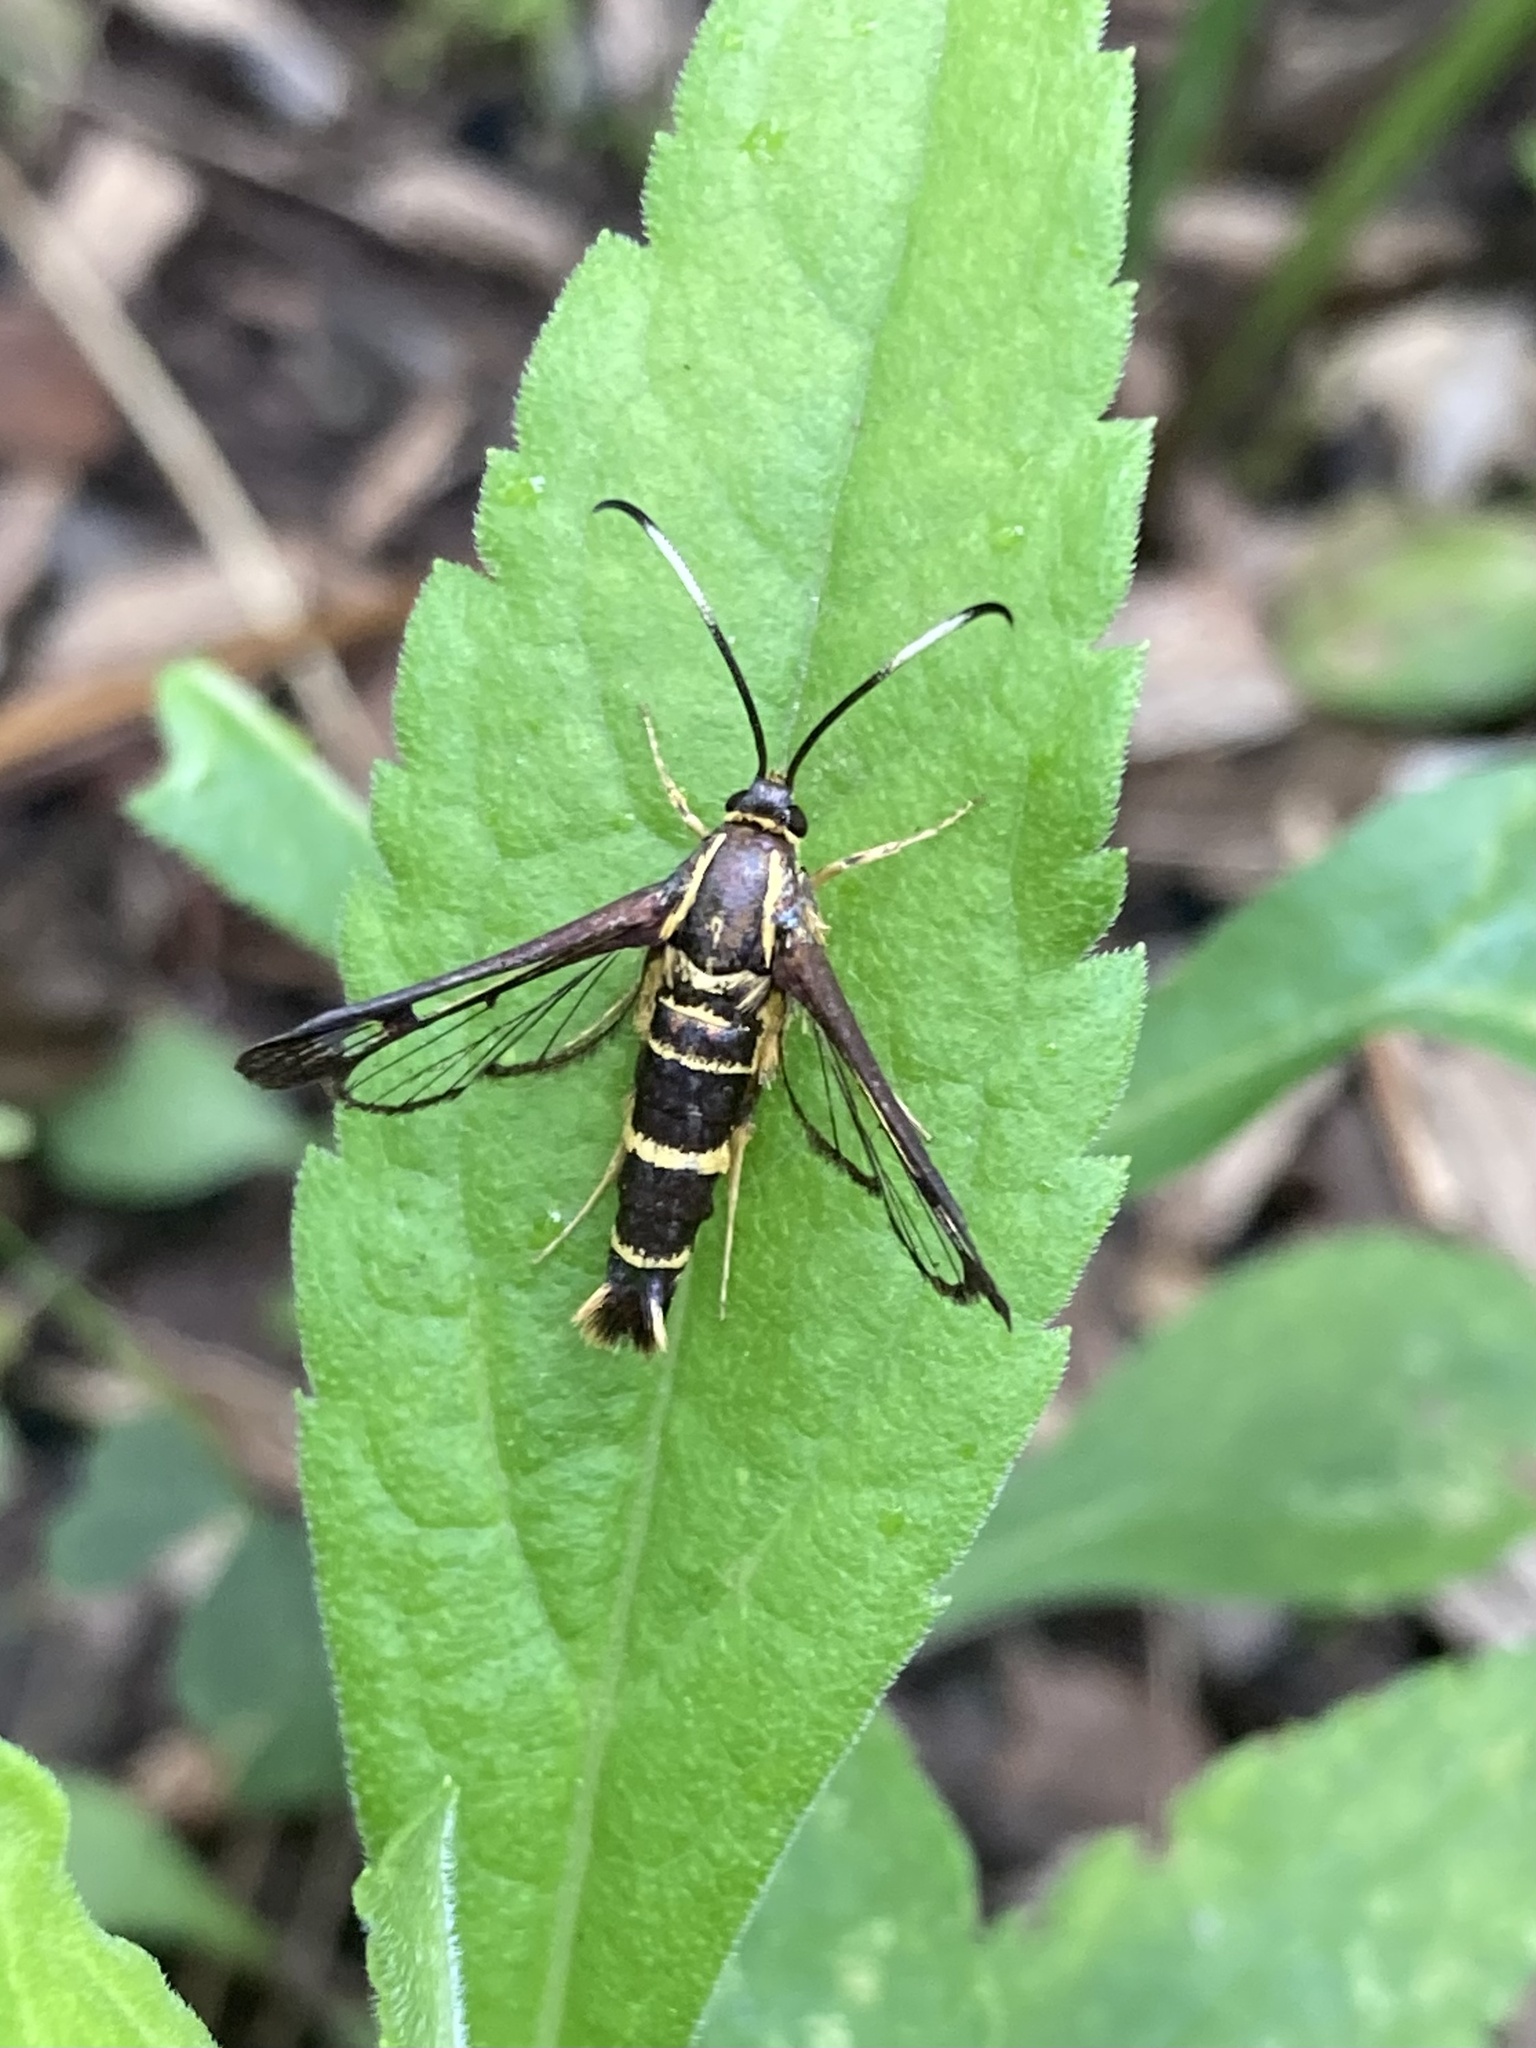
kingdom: Animalia
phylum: Arthropoda
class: Insecta
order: Lepidoptera
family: Sesiidae
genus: Carmenta
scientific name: Carmenta bassiformis
